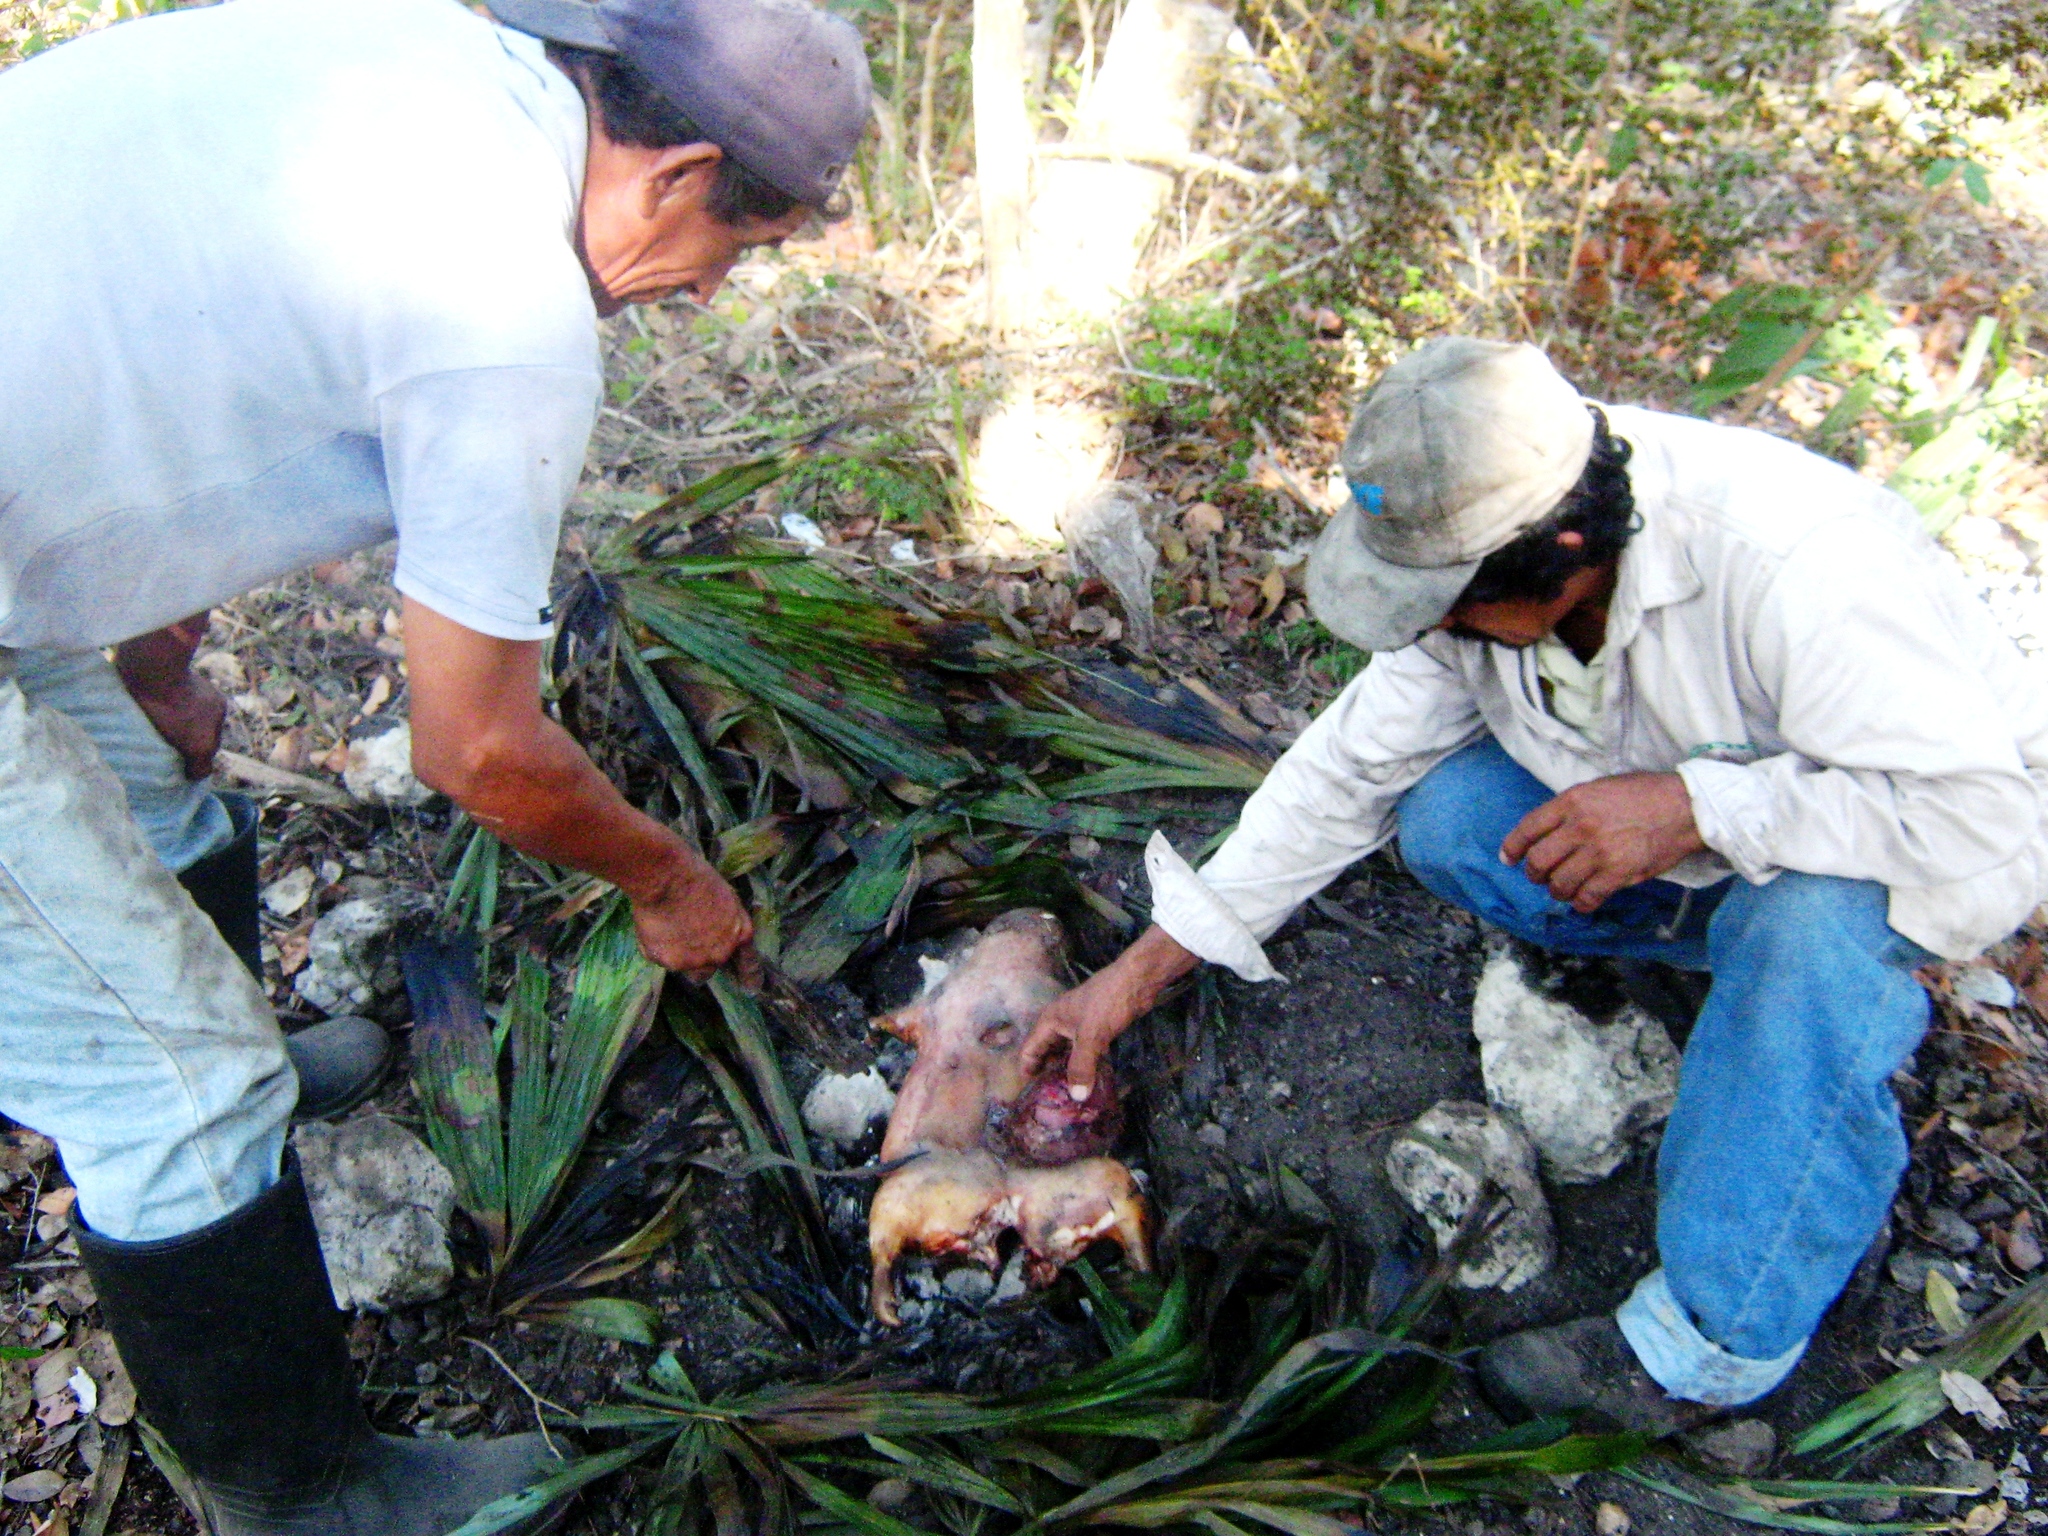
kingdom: Animalia
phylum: Chordata
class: Mammalia
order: Rodentia
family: Cuniculidae
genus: Cuniculus
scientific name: Cuniculus paca
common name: Lowland paca
